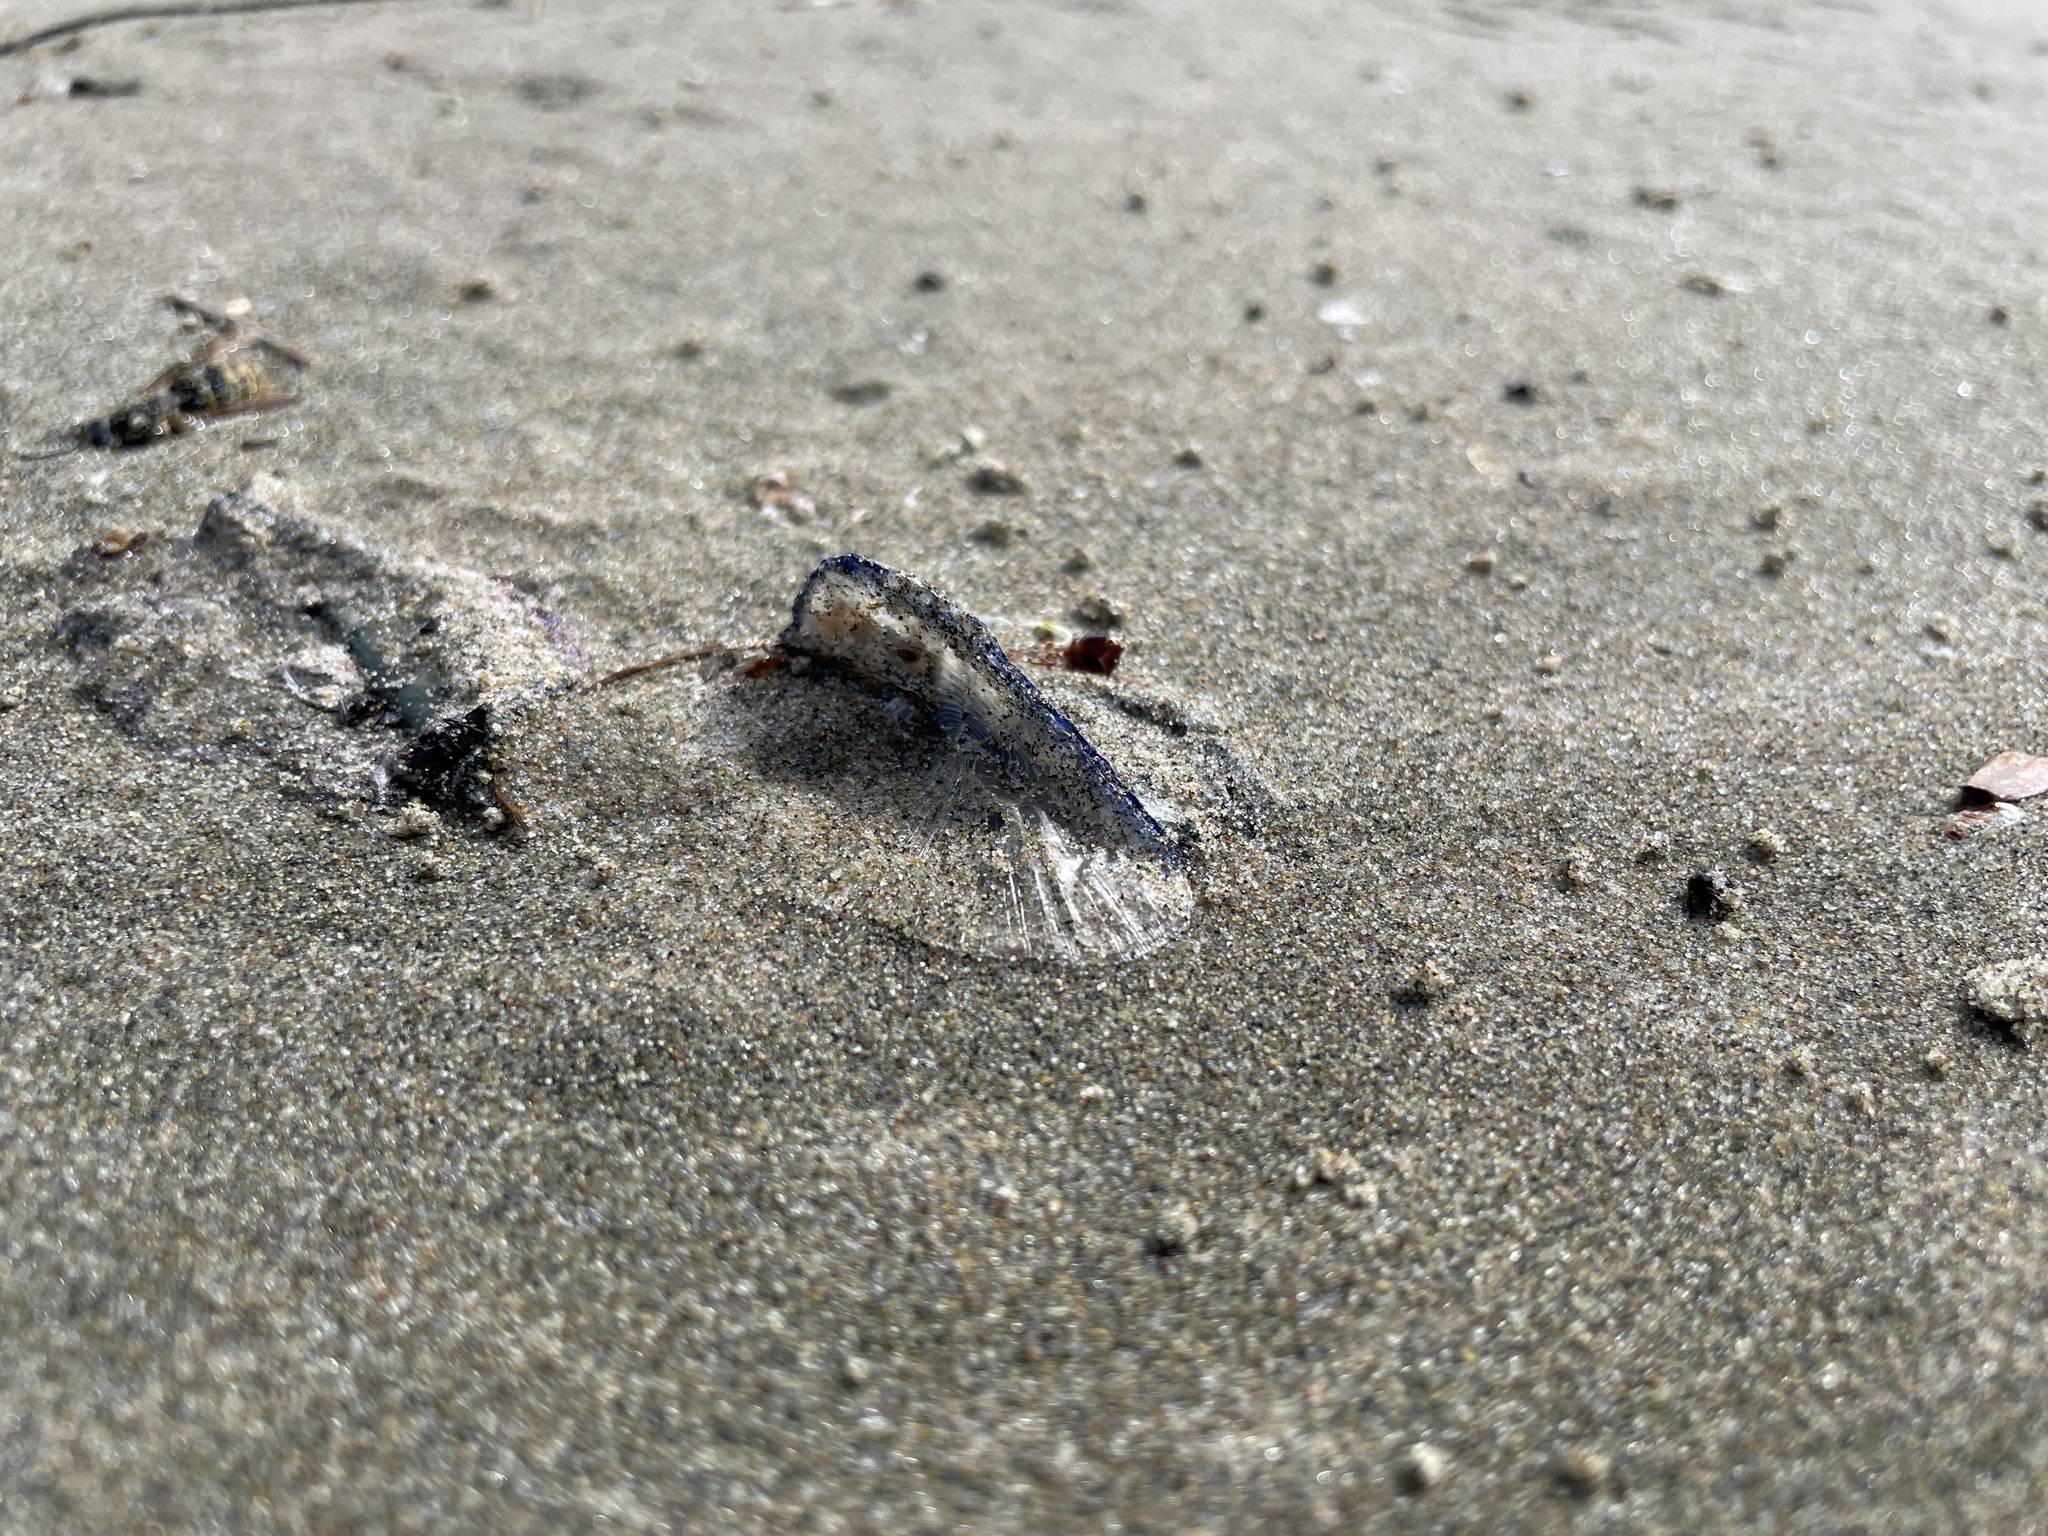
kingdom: Animalia
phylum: Cnidaria
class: Hydrozoa
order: Anthoathecata
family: Porpitidae
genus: Velella
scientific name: Velella velella
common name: By-the-wind-sailor
